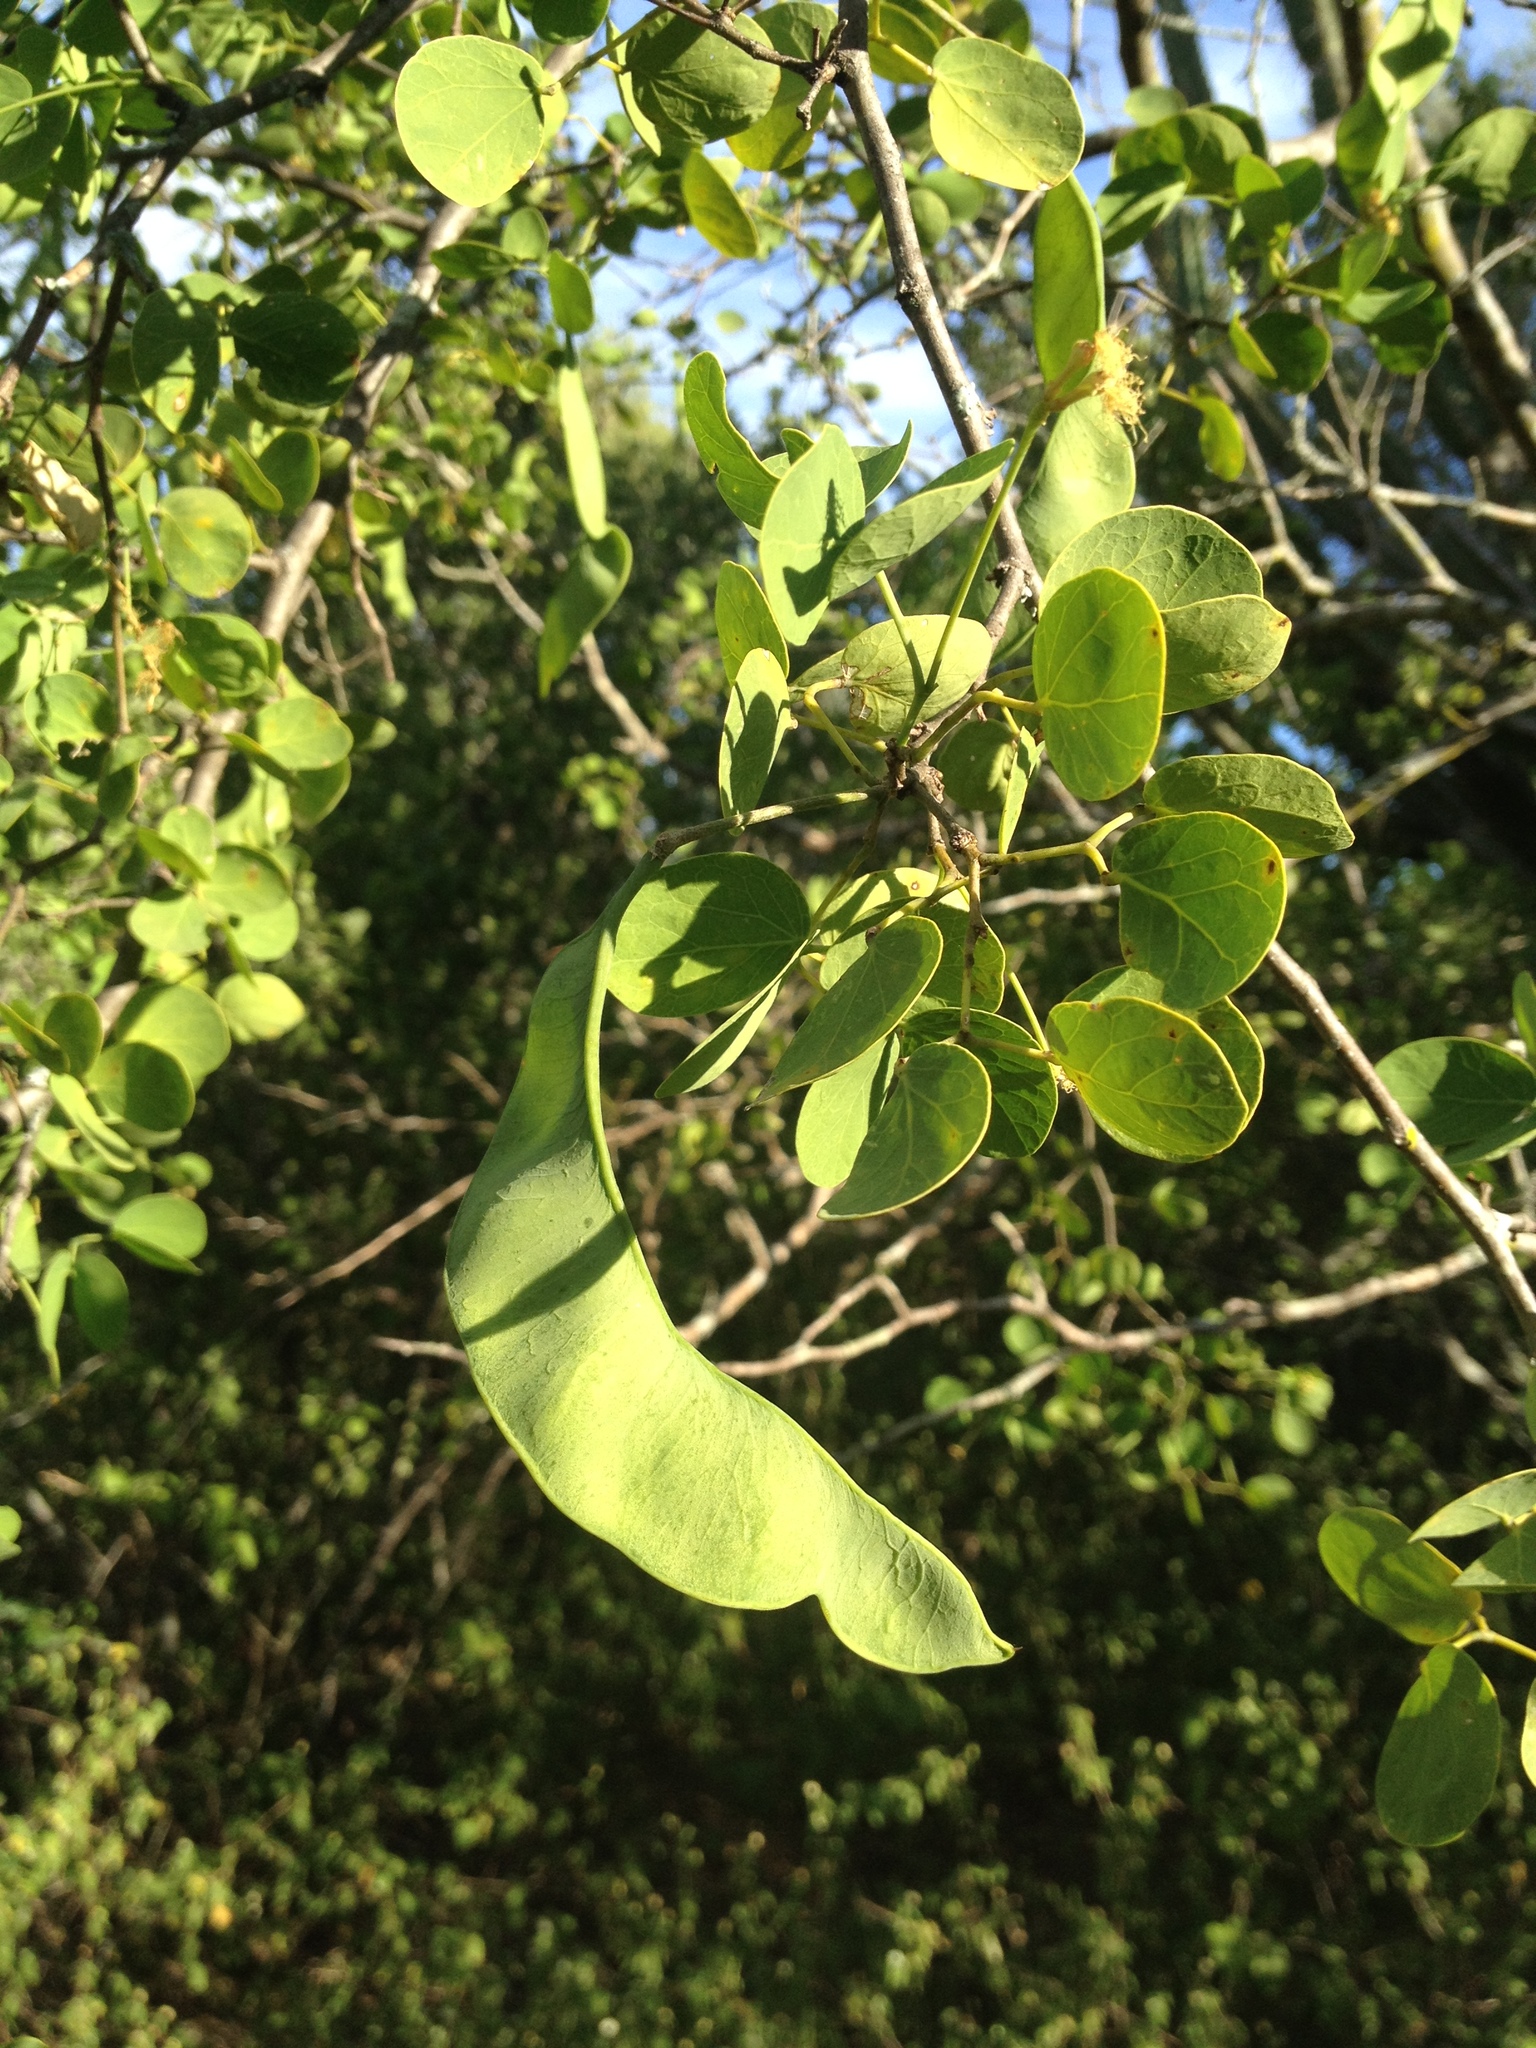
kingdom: Plantae
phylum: Tracheophyta
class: Magnoliopsida
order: Fabales
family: Fabaceae
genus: Chloroleucon
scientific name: Chloroleucon chacoense
